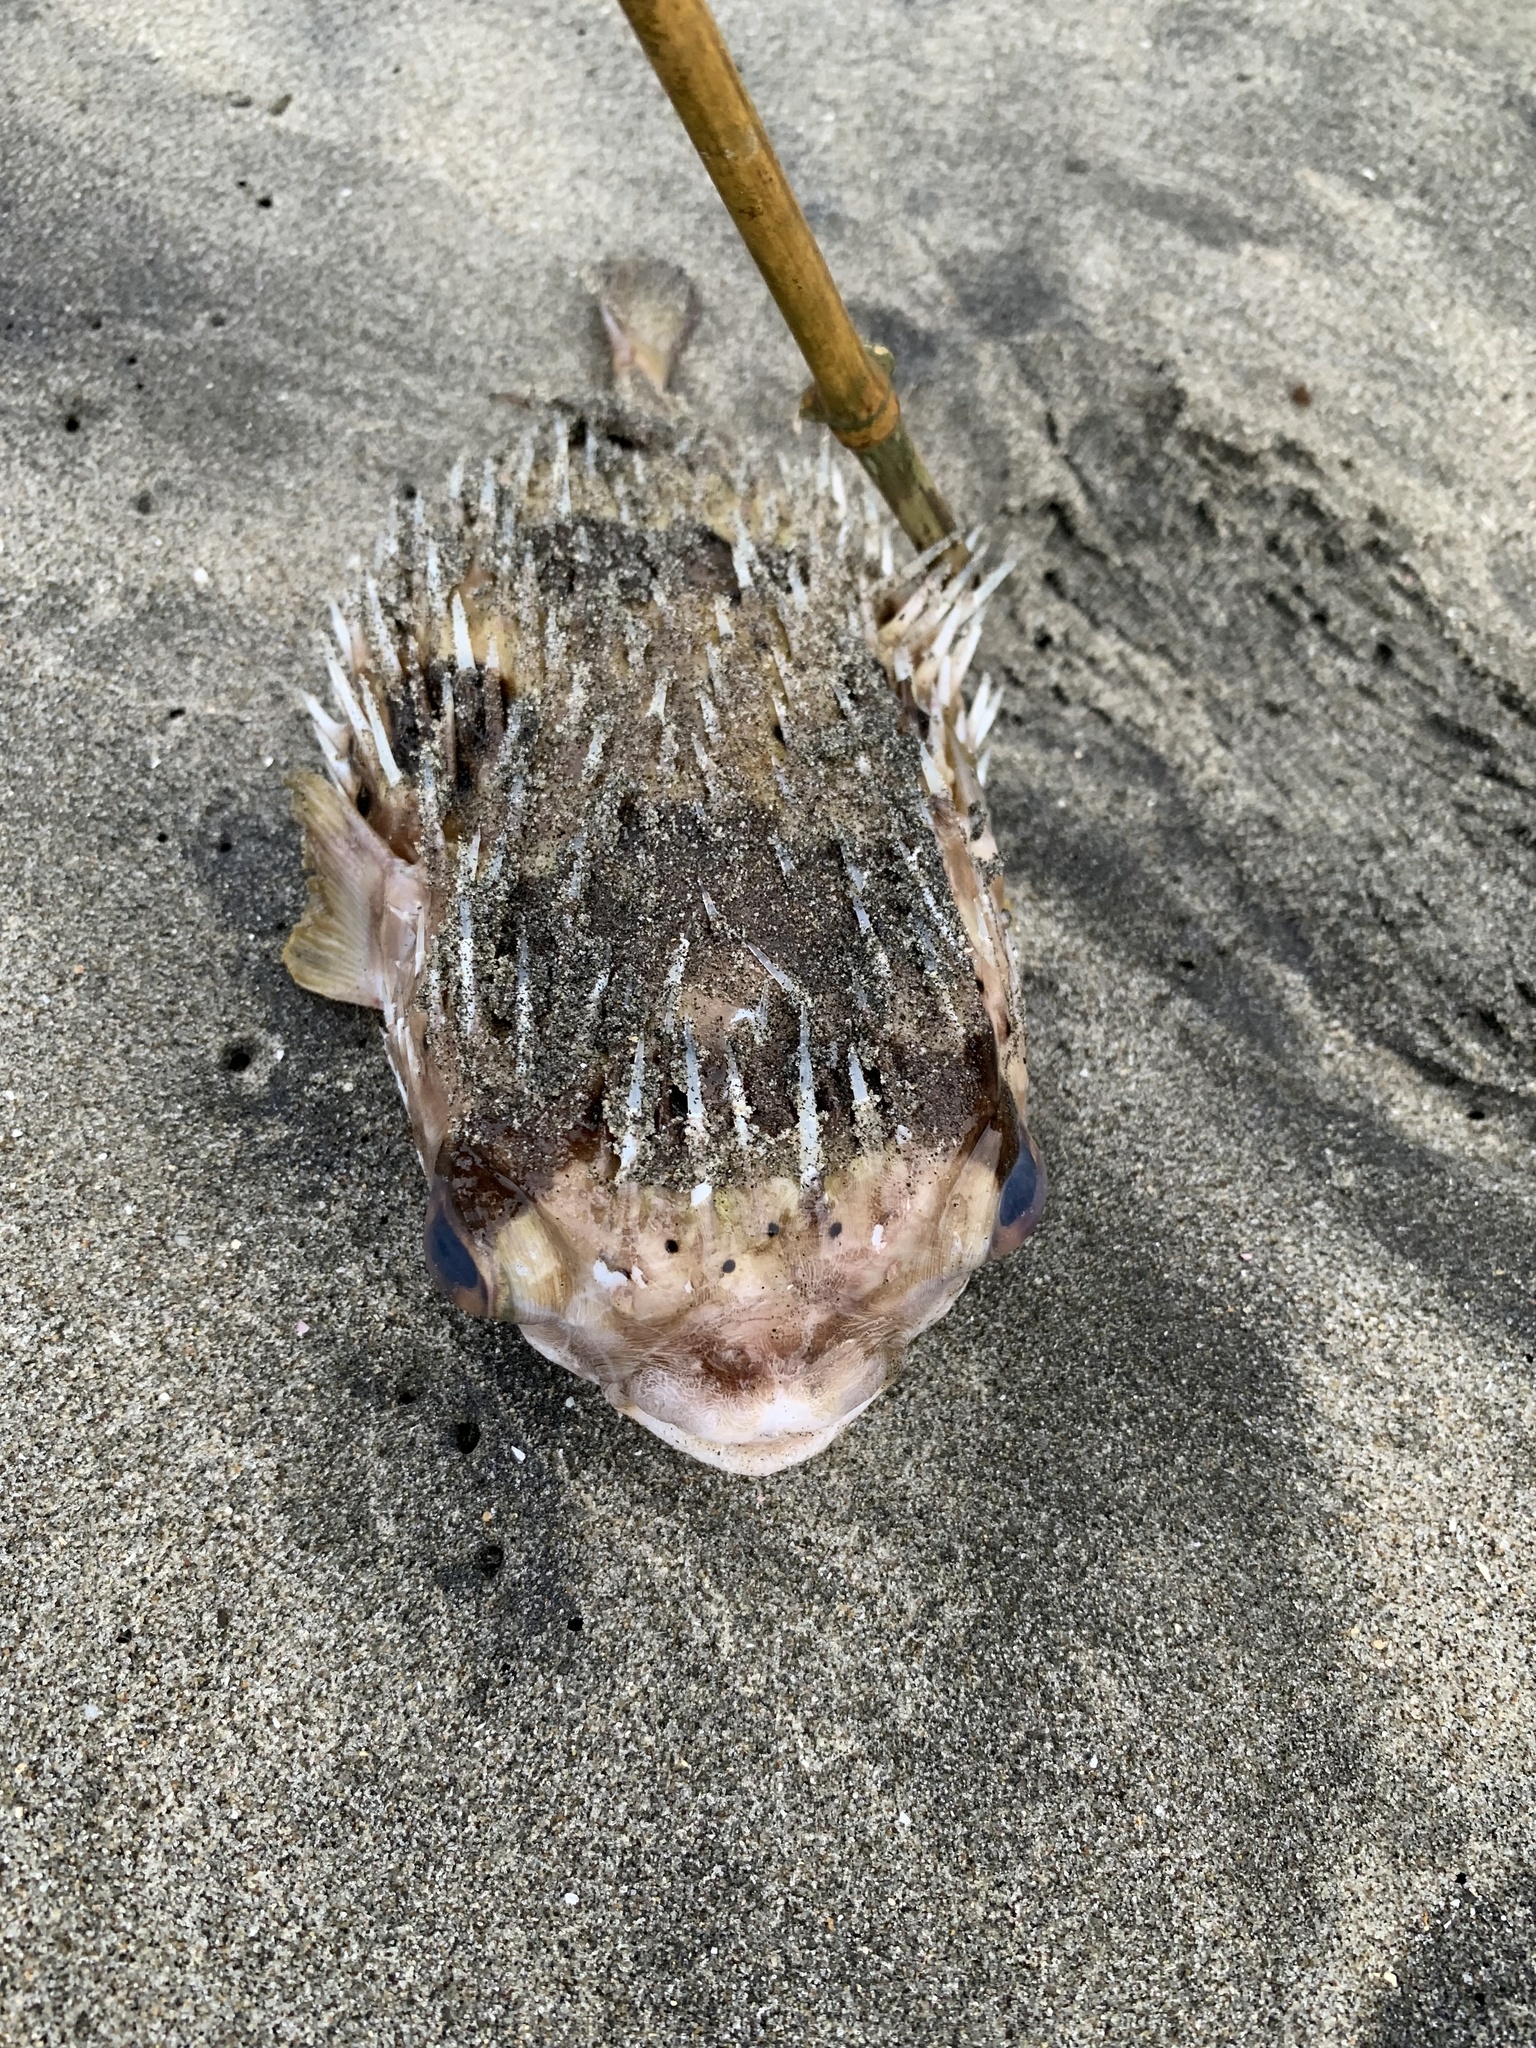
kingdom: Animalia
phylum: Chordata
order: Tetraodontiformes
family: Diodontidae
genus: Diodon
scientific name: Diodon holocanthus
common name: Balloonfish
